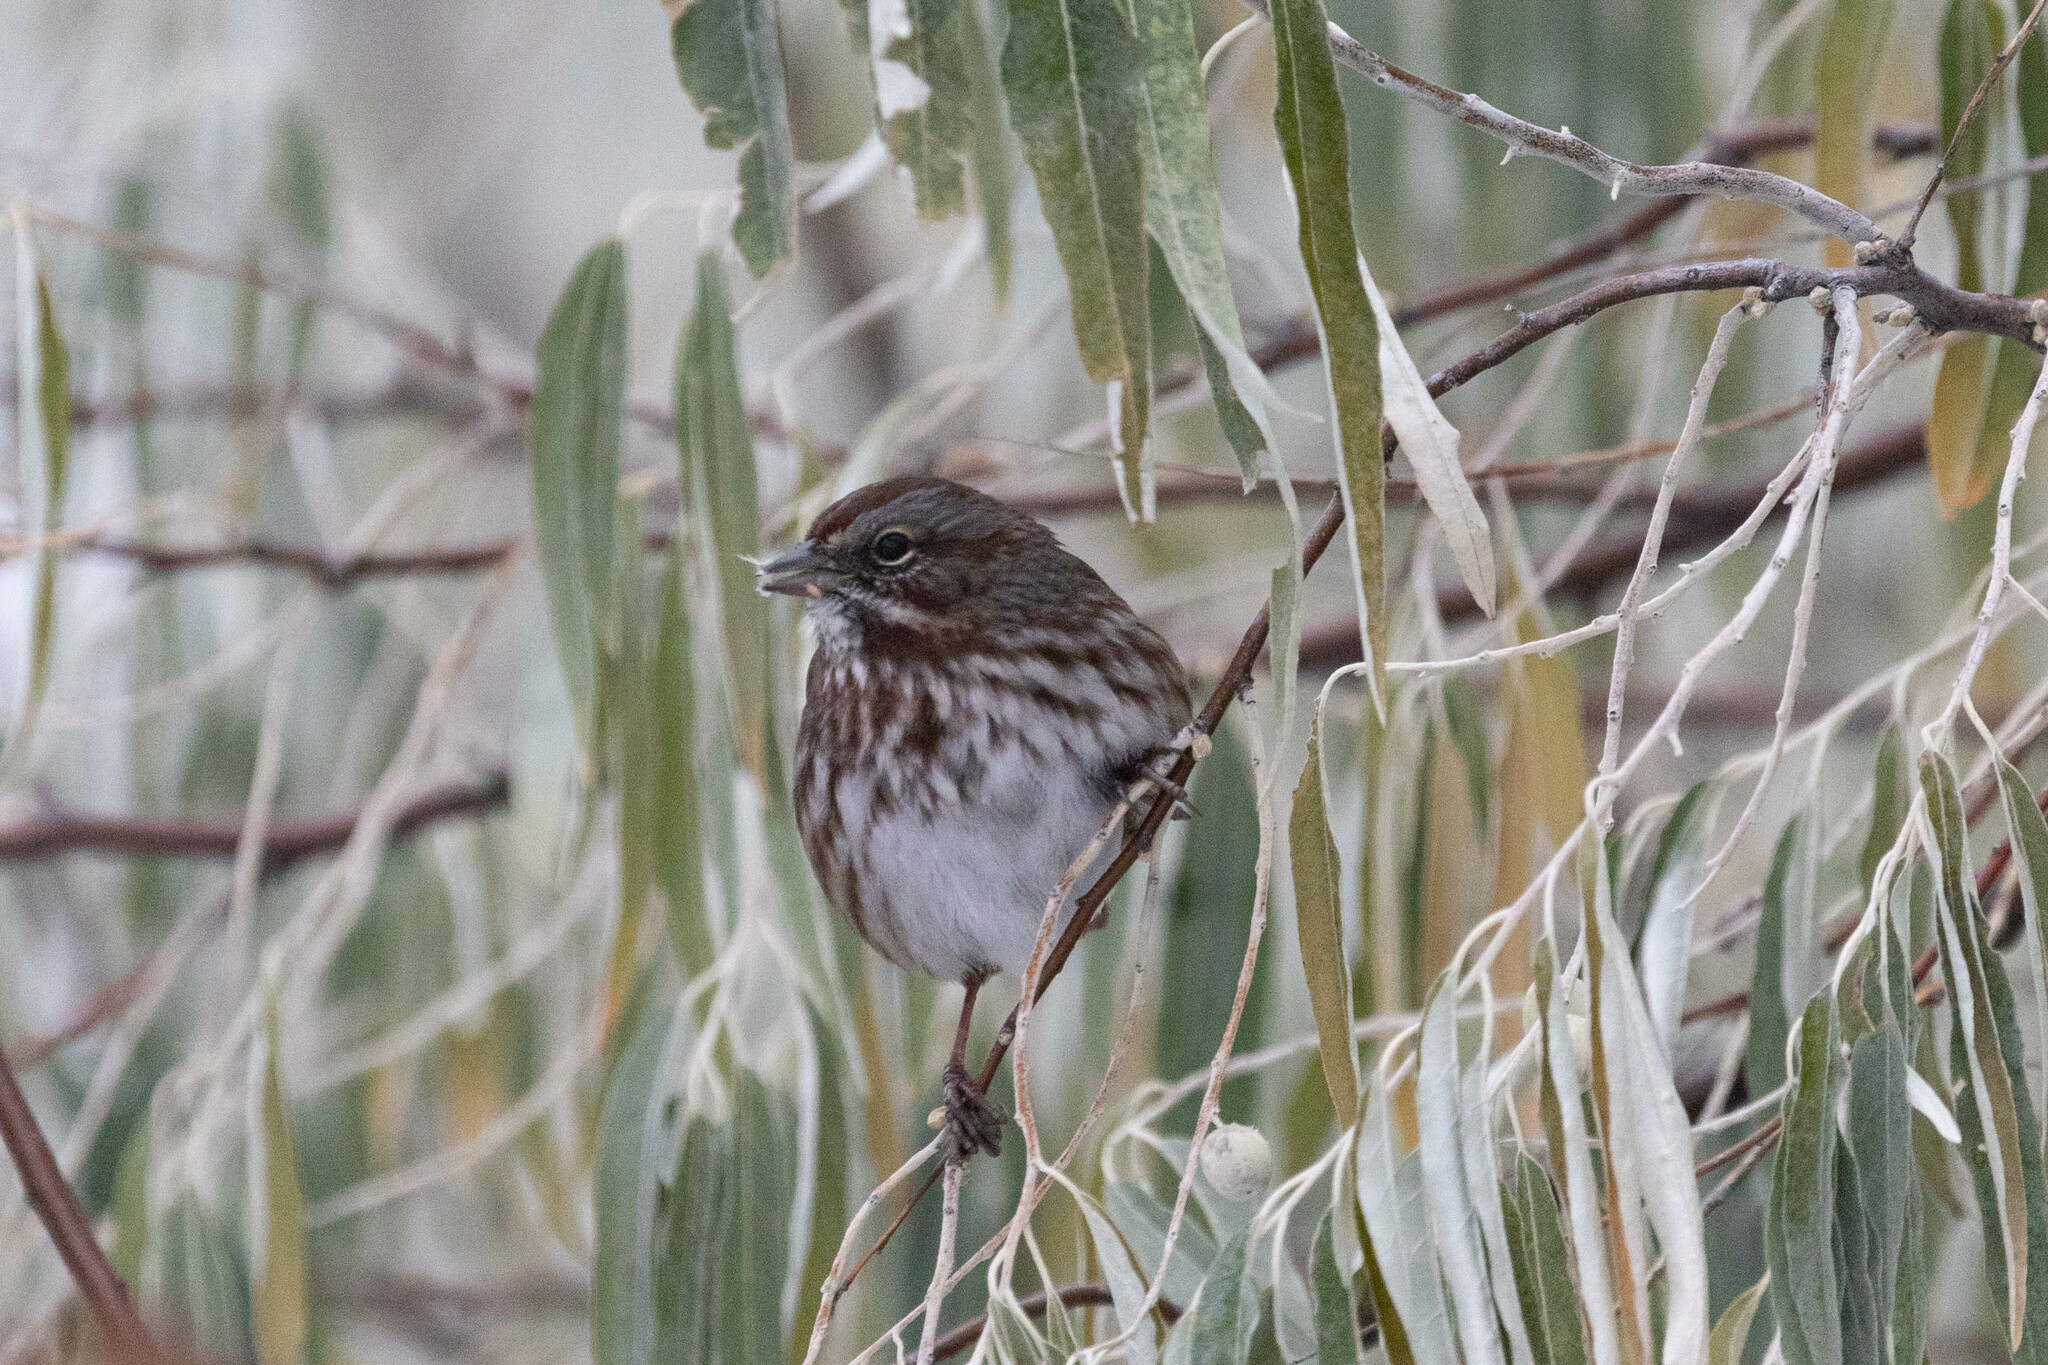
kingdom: Animalia
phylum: Chordata
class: Aves
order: Passeriformes
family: Passerellidae
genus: Melospiza
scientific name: Melospiza melodia
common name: Song sparrow
